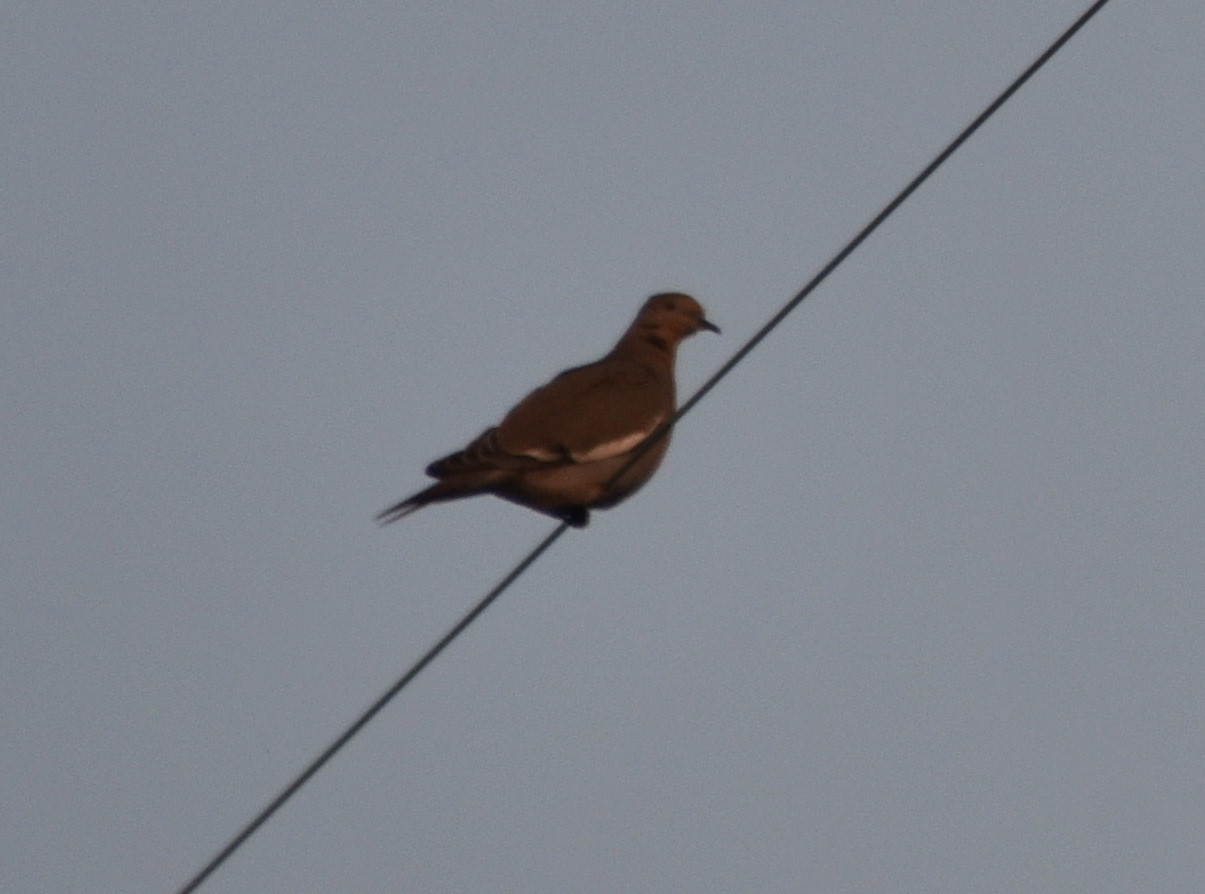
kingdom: Animalia
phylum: Chordata
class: Aves
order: Columbiformes
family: Columbidae
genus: Zenaida
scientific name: Zenaida asiatica
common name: White-winged dove
